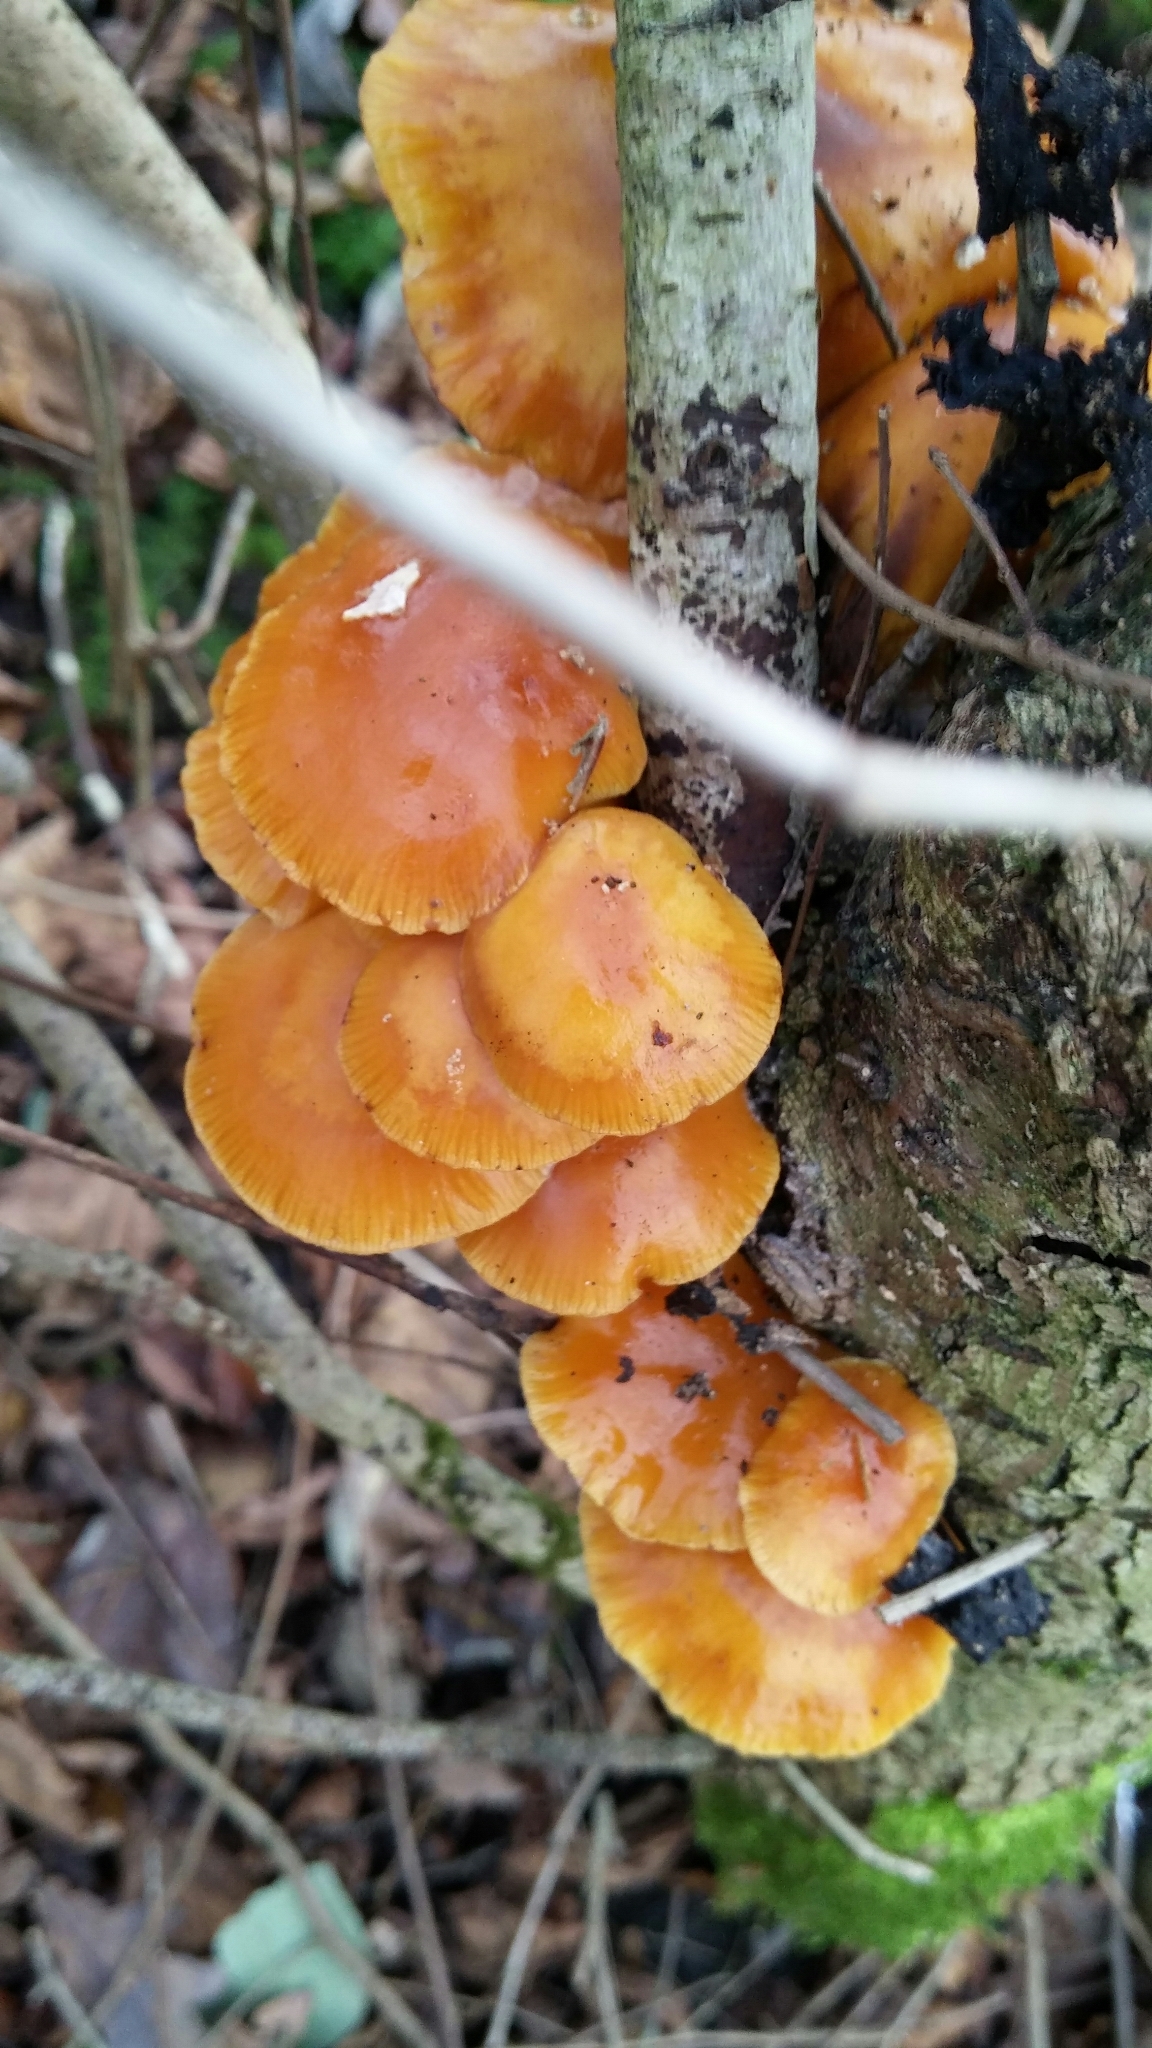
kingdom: Fungi
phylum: Basidiomycota
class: Agaricomycetes
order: Agaricales
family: Physalacriaceae
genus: Flammulina
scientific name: Flammulina
